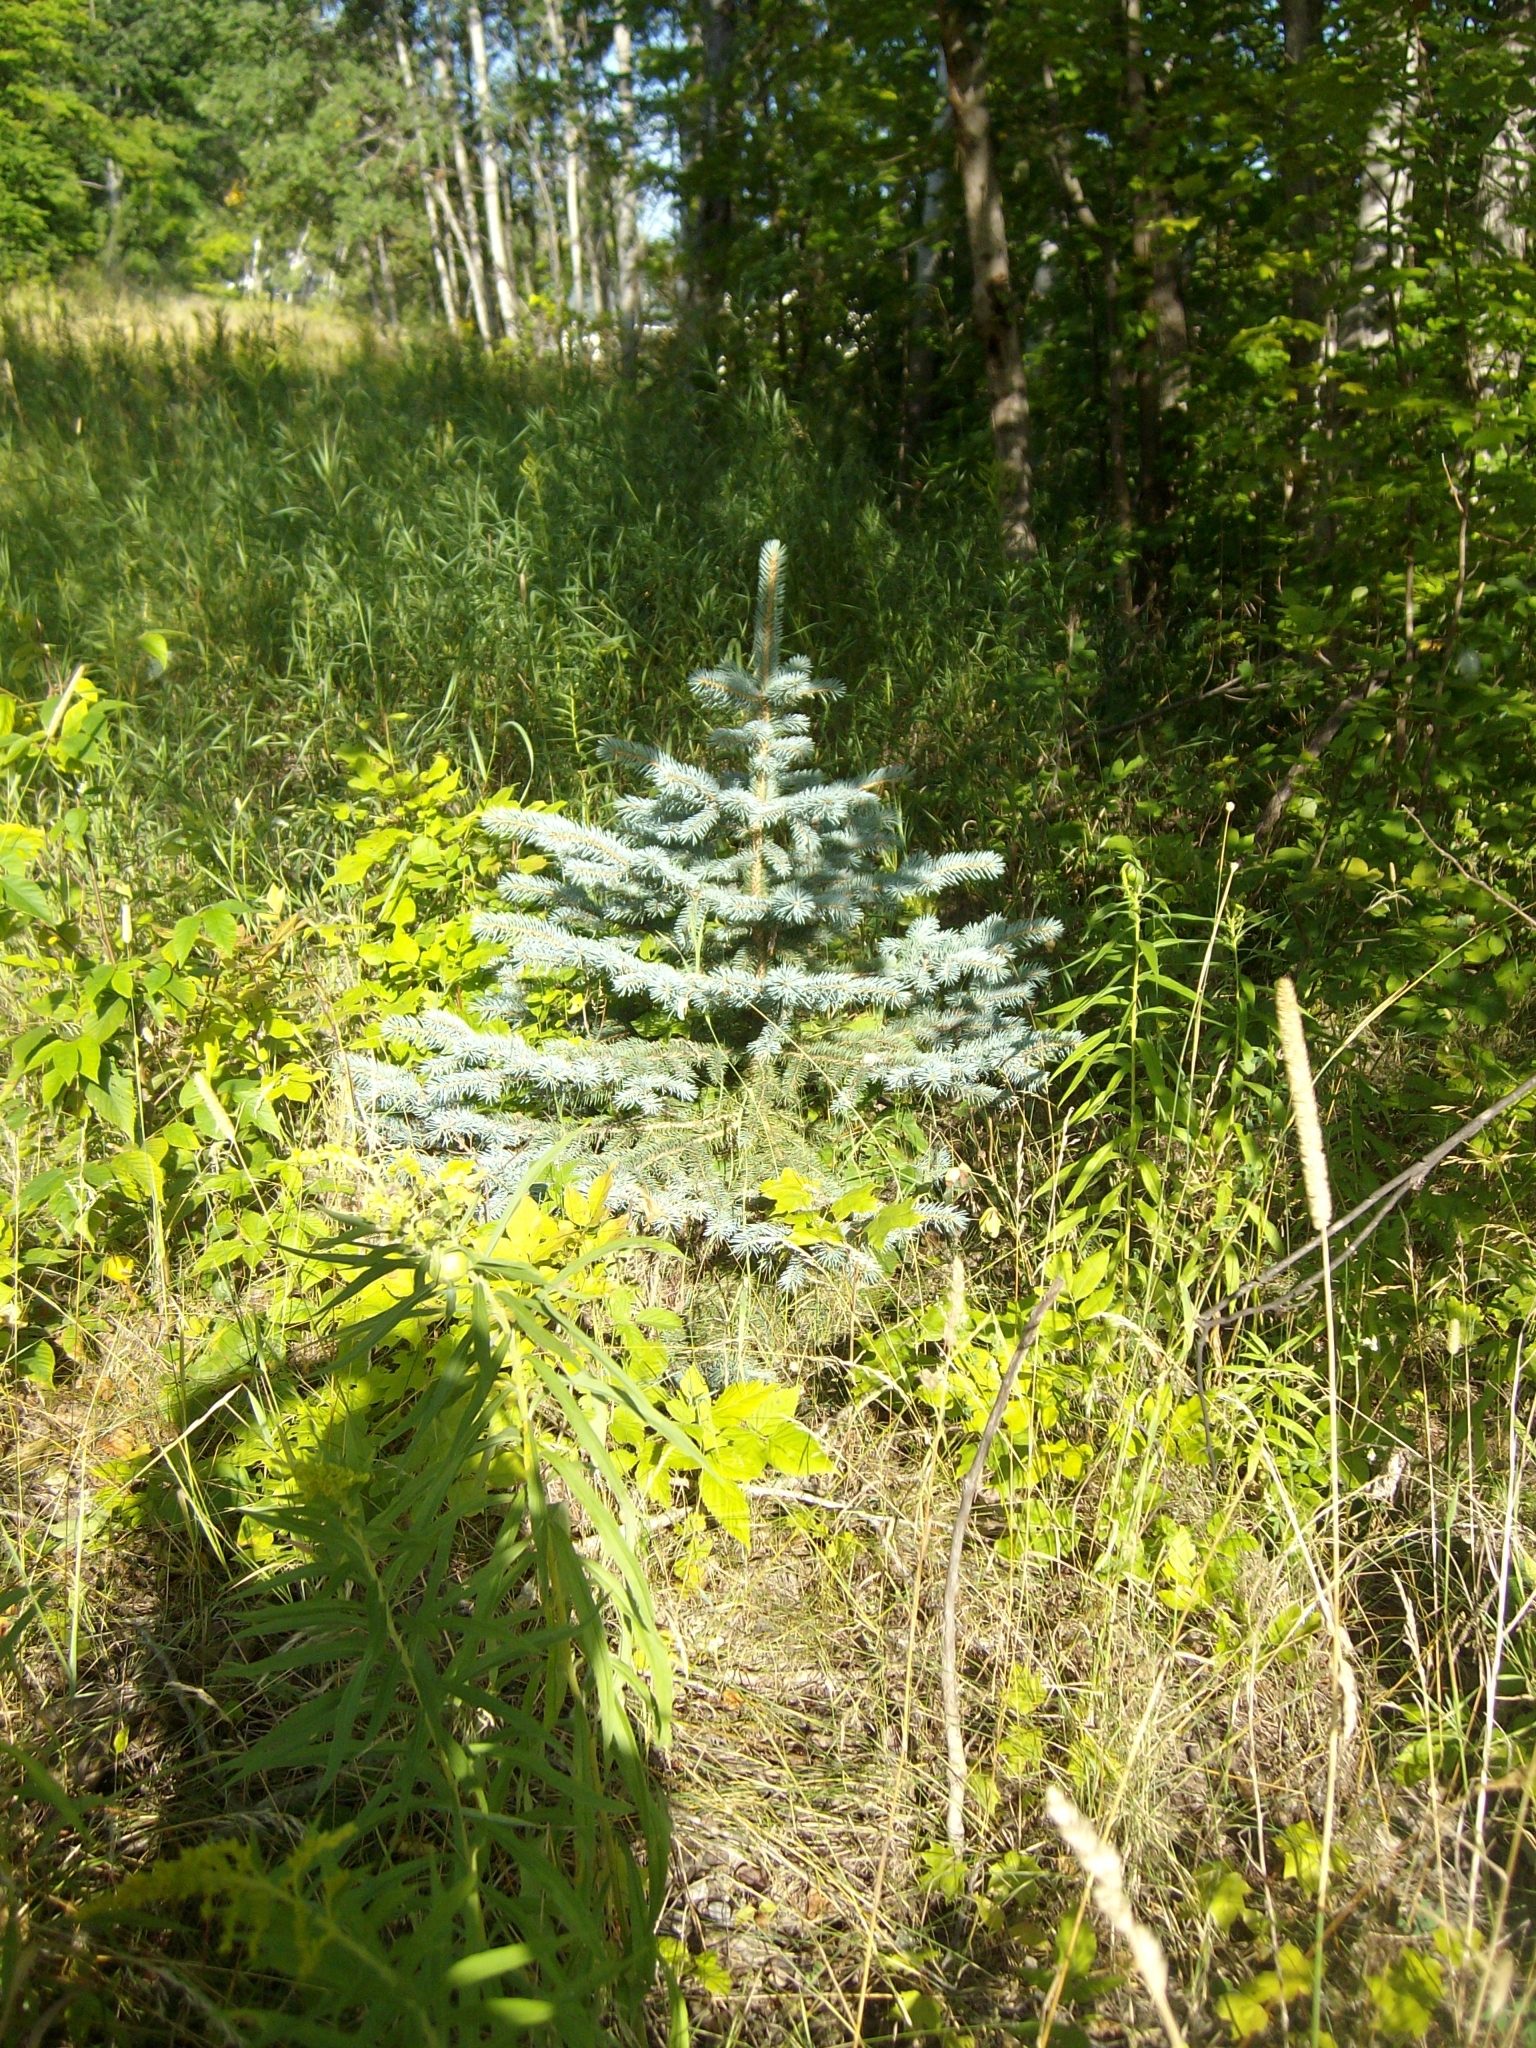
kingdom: Plantae
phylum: Tracheophyta
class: Pinopsida
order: Pinales
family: Pinaceae
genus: Picea
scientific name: Picea pungens
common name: Colorado spruce
